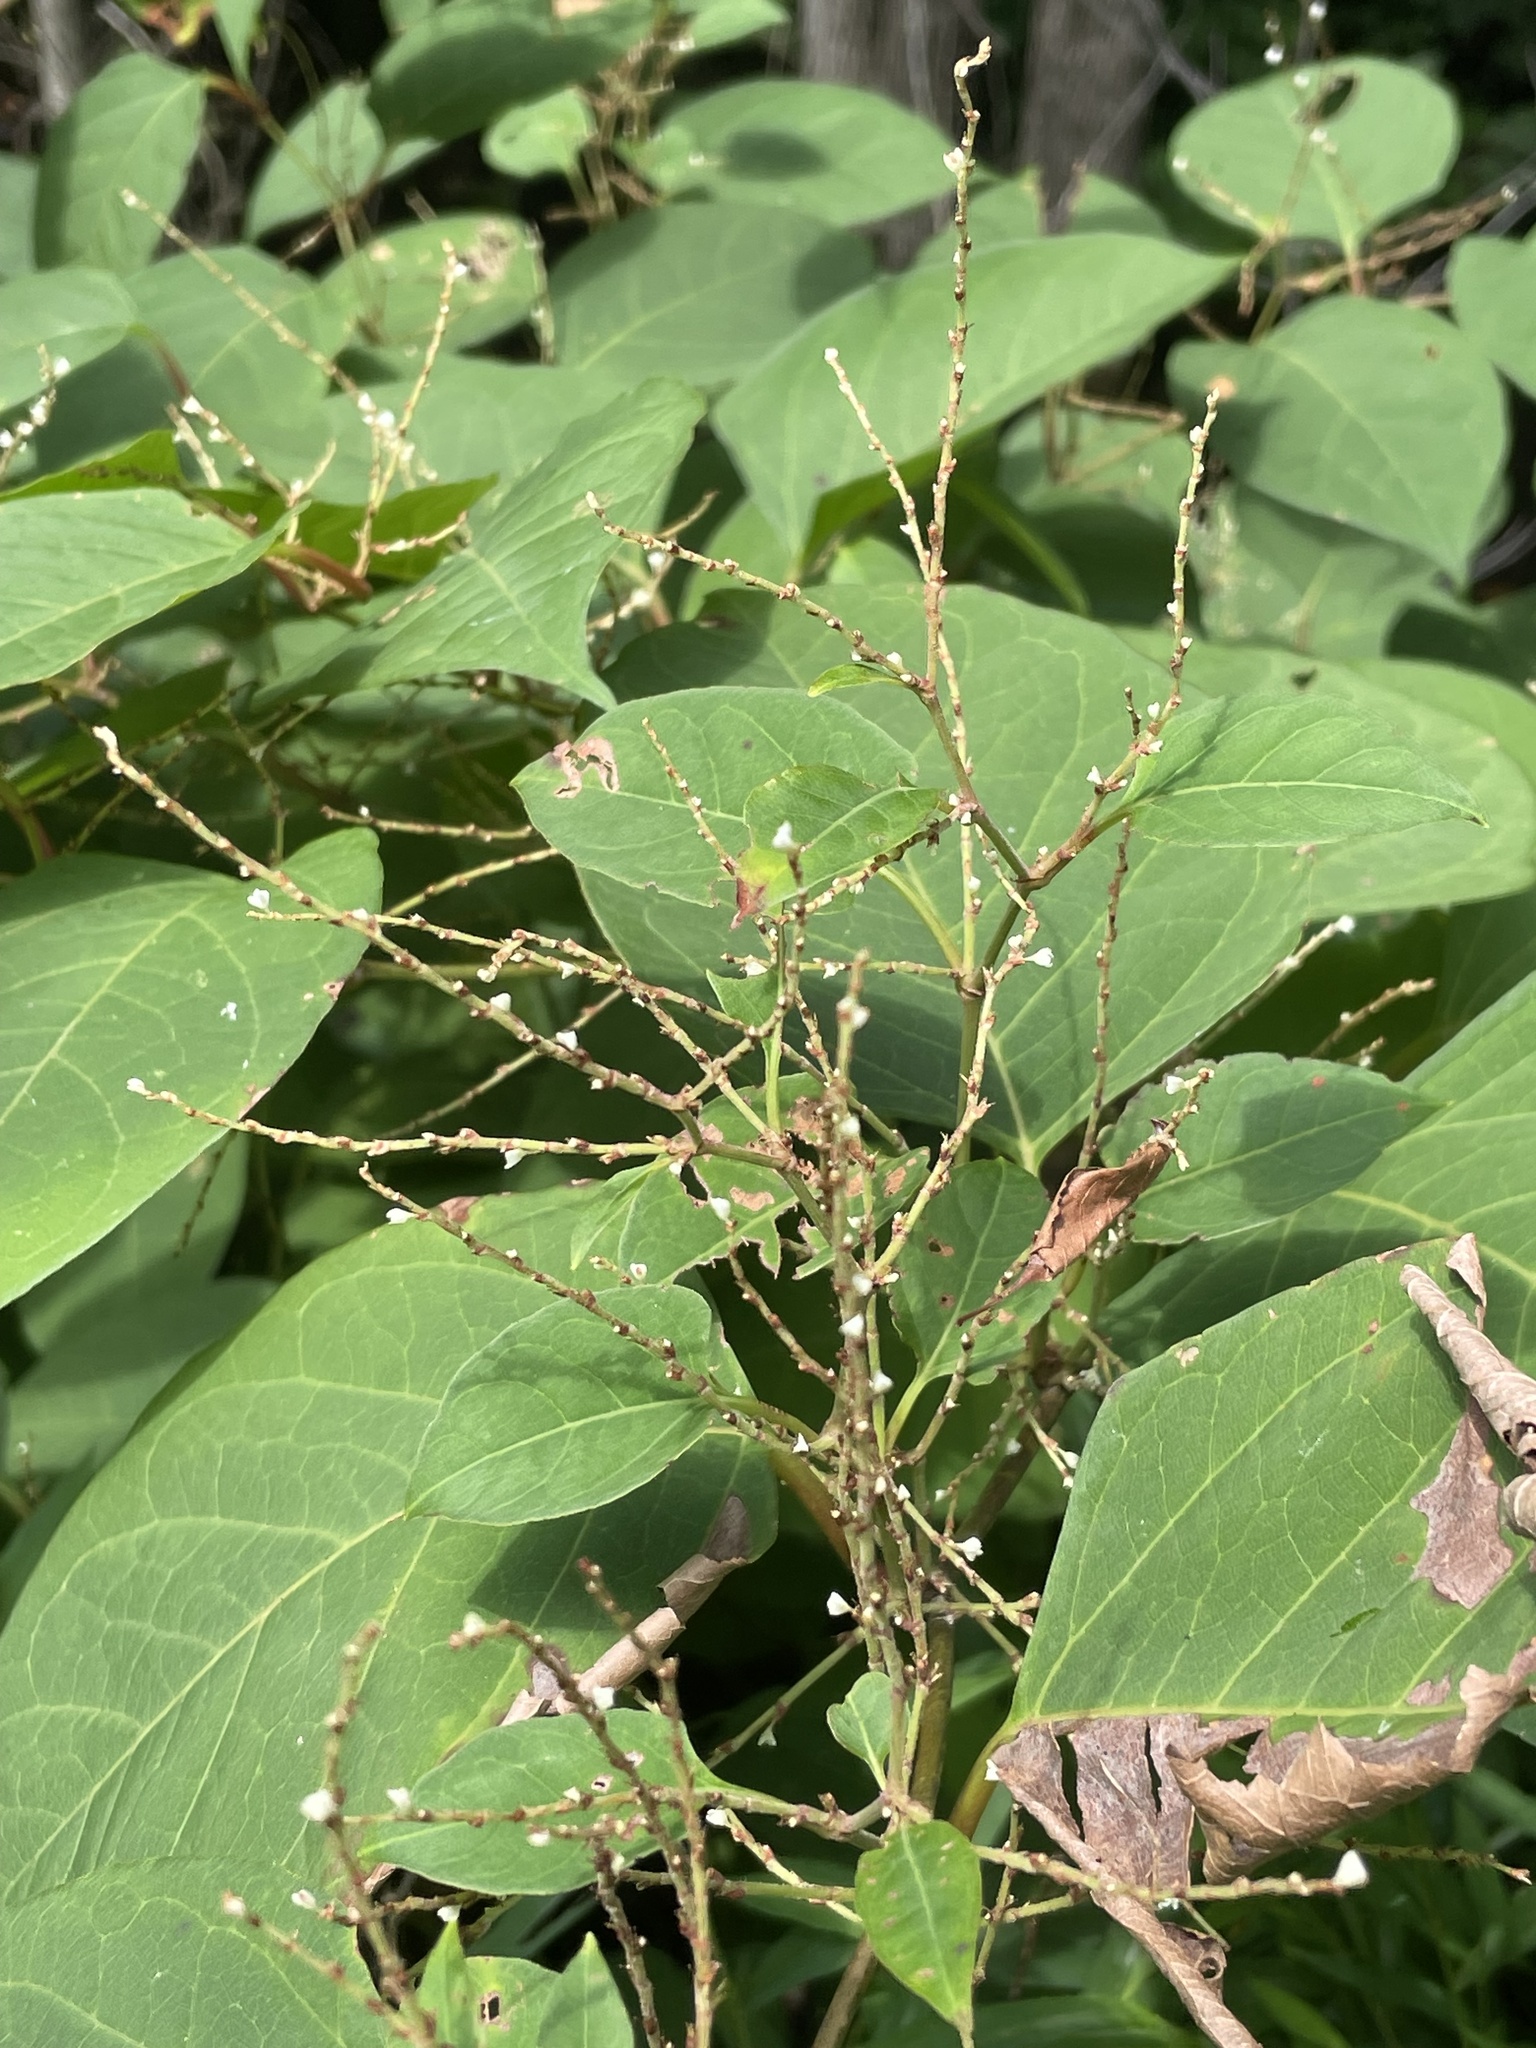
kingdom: Plantae
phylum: Tracheophyta
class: Magnoliopsida
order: Caryophyllales
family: Polygonaceae
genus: Reynoutria
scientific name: Reynoutria japonica
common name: Japanese knotweed
